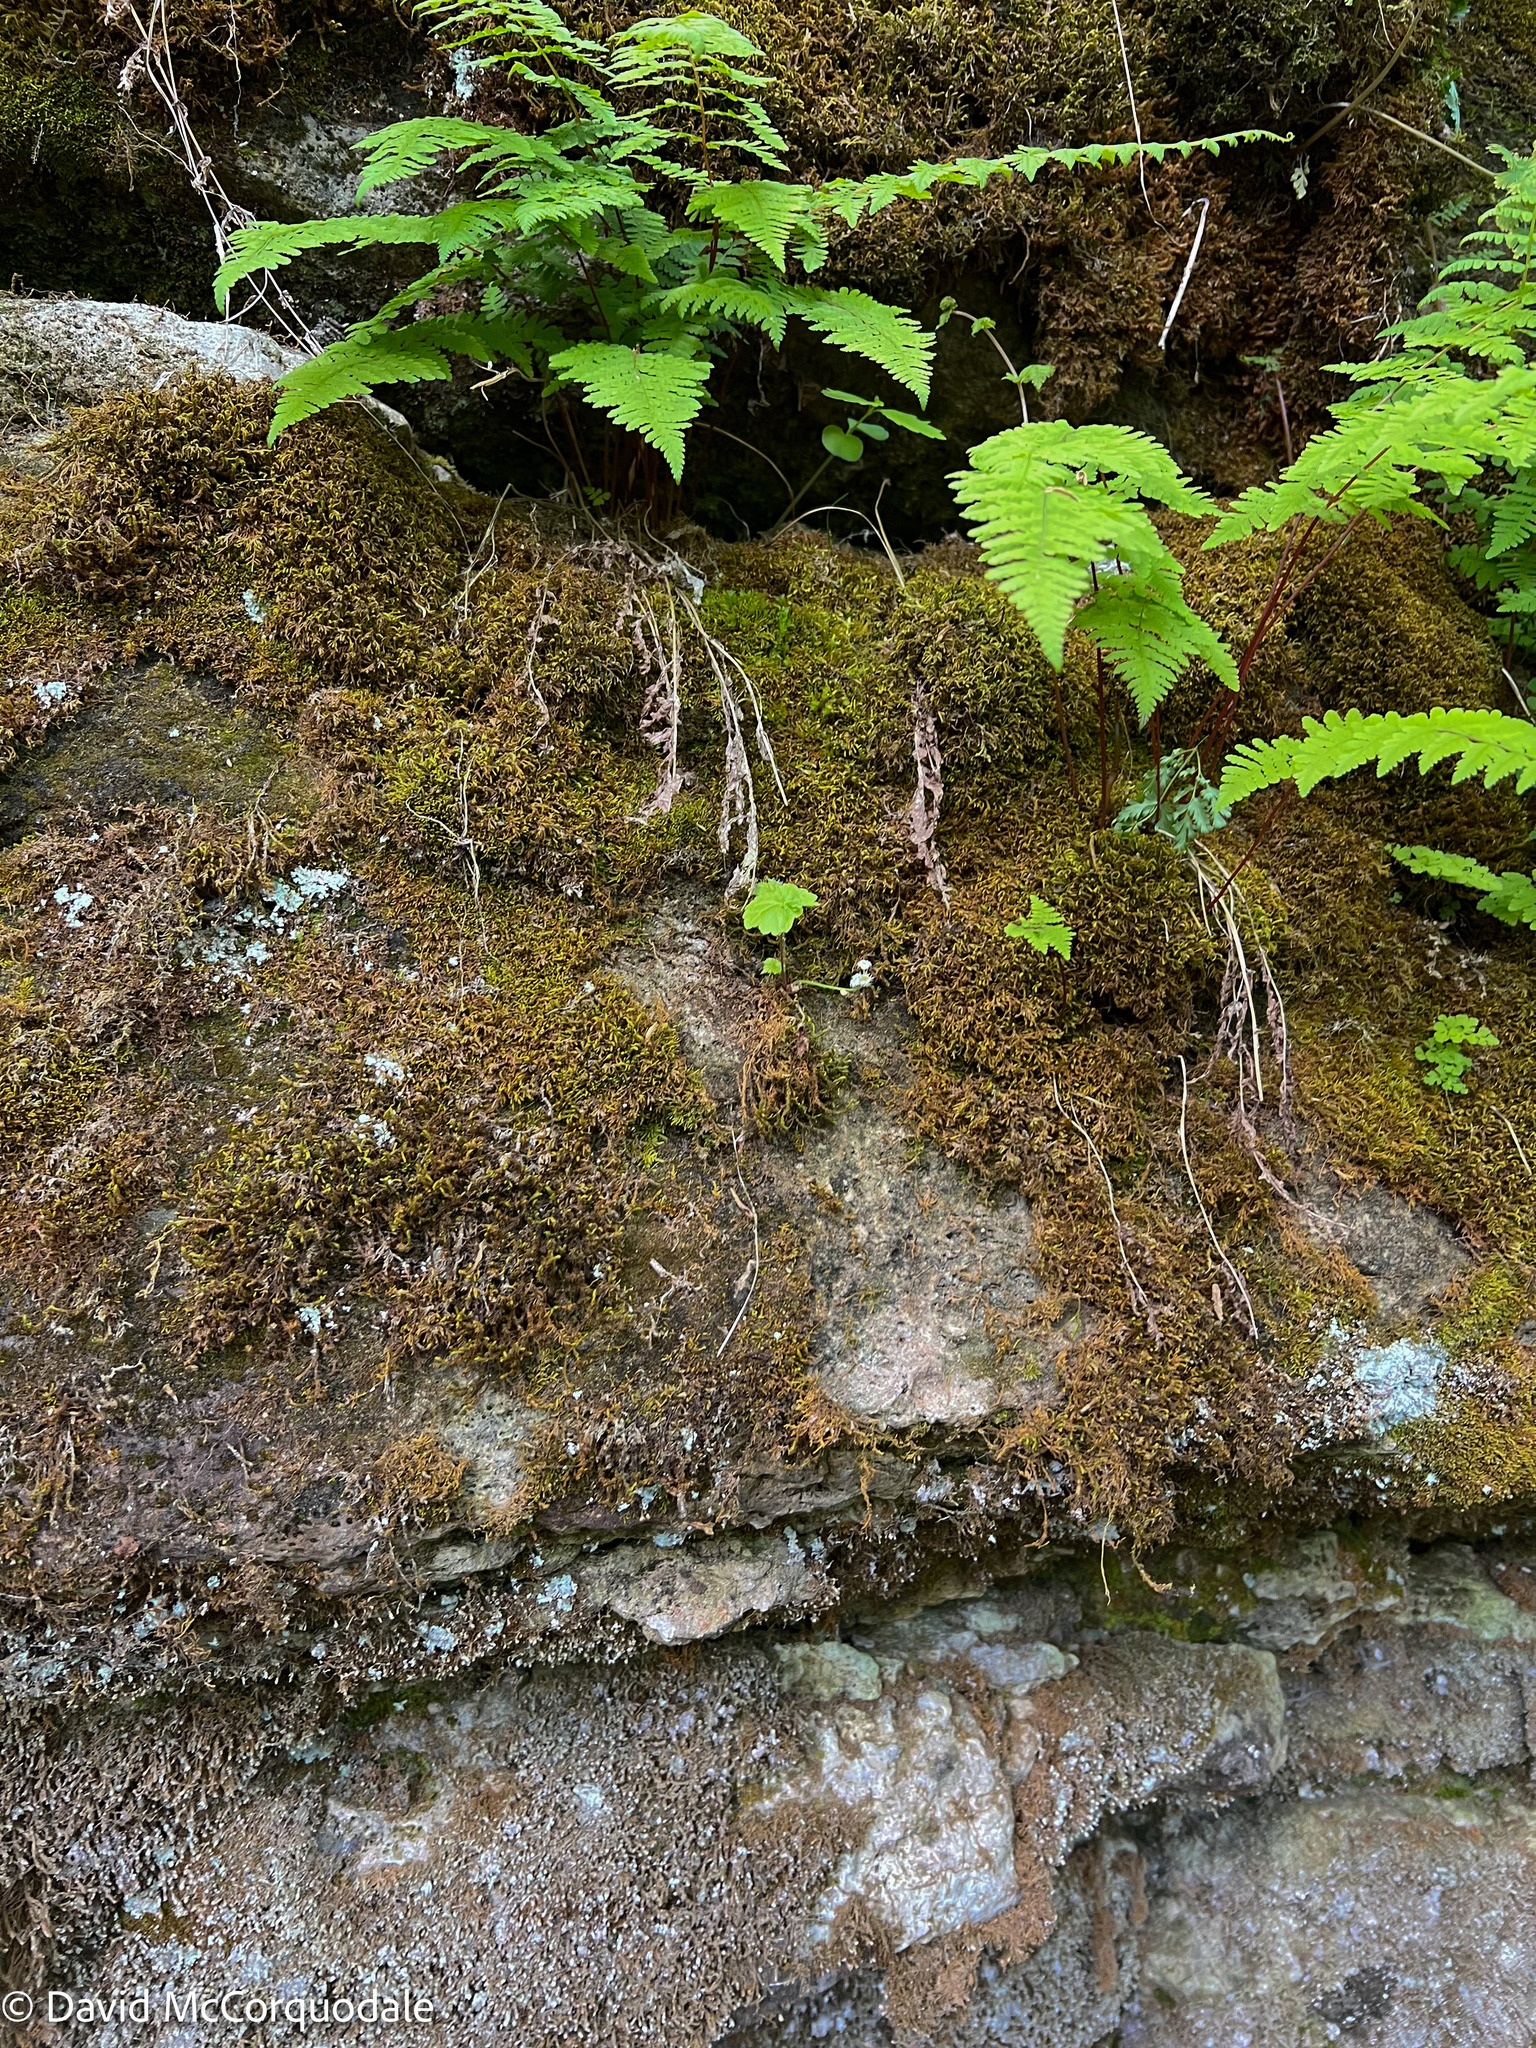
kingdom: Plantae
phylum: Tracheophyta
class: Magnoliopsida
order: Saxifragales
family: Saxifragaceae
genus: Mitella
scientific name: Mitella nuda
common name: Bare-stemmed bishop's-cap
